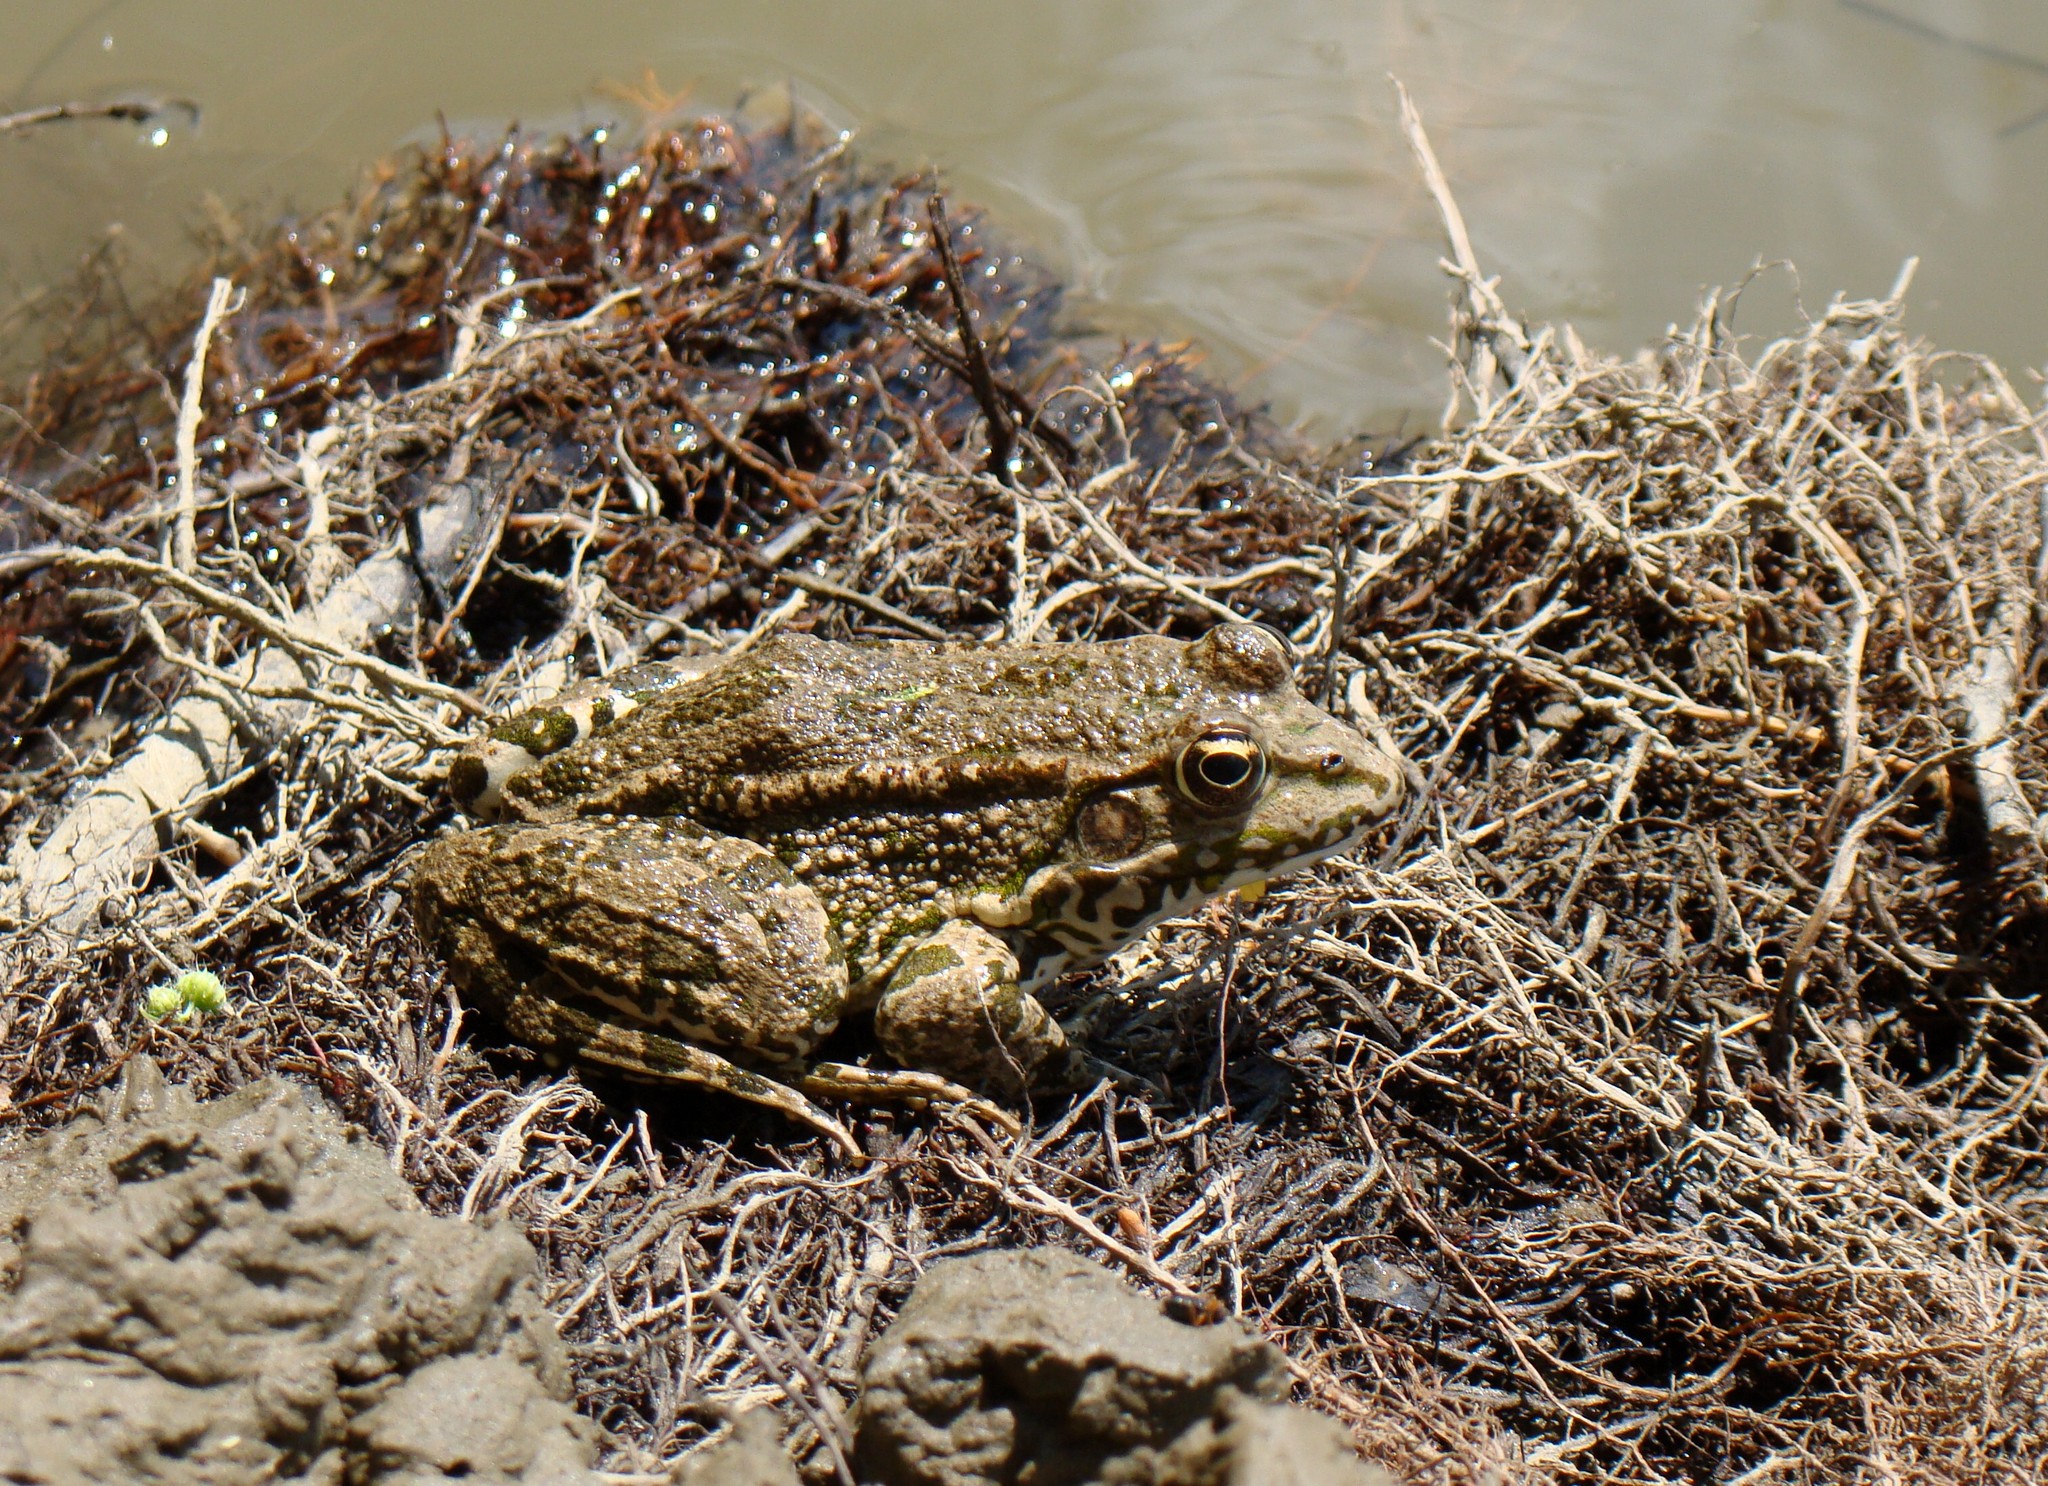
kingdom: Animalia
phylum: Chordata
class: Amphibia
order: Anura
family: Ranidae
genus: Pelophylax
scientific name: Pelophylax ridibundus
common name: Marsh frog
